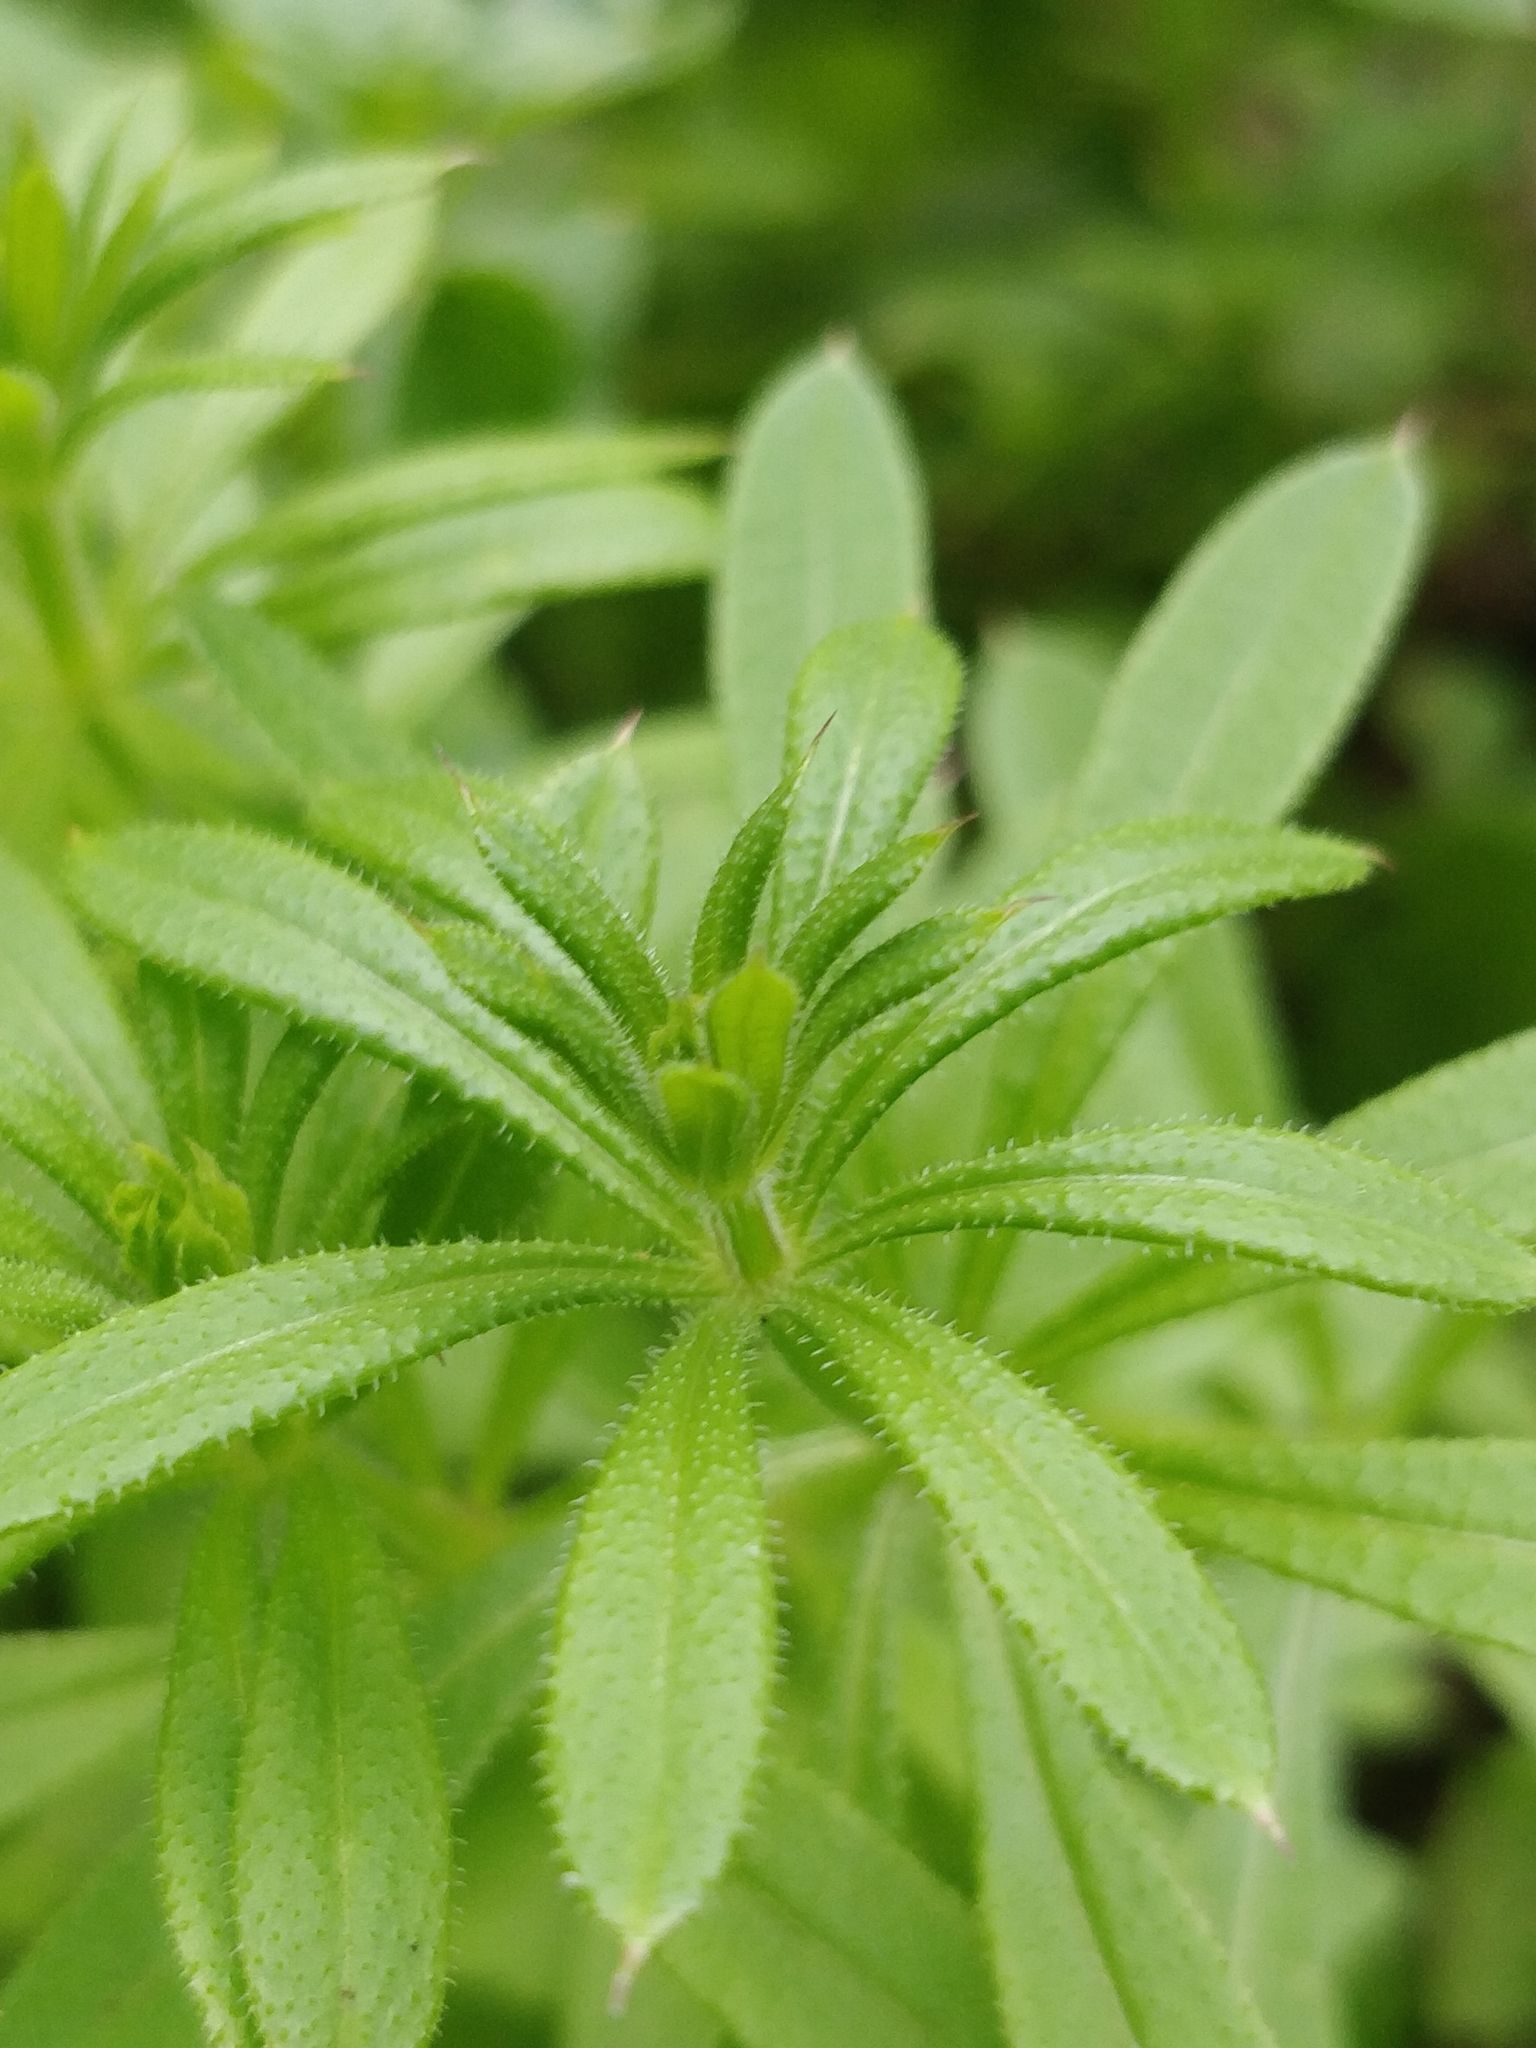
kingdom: Plantae
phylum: Tracheophyta
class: Magnoliopsida
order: Gentianales
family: Rubiaceae
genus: Galium
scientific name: Galium aparine
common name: Cleavers
